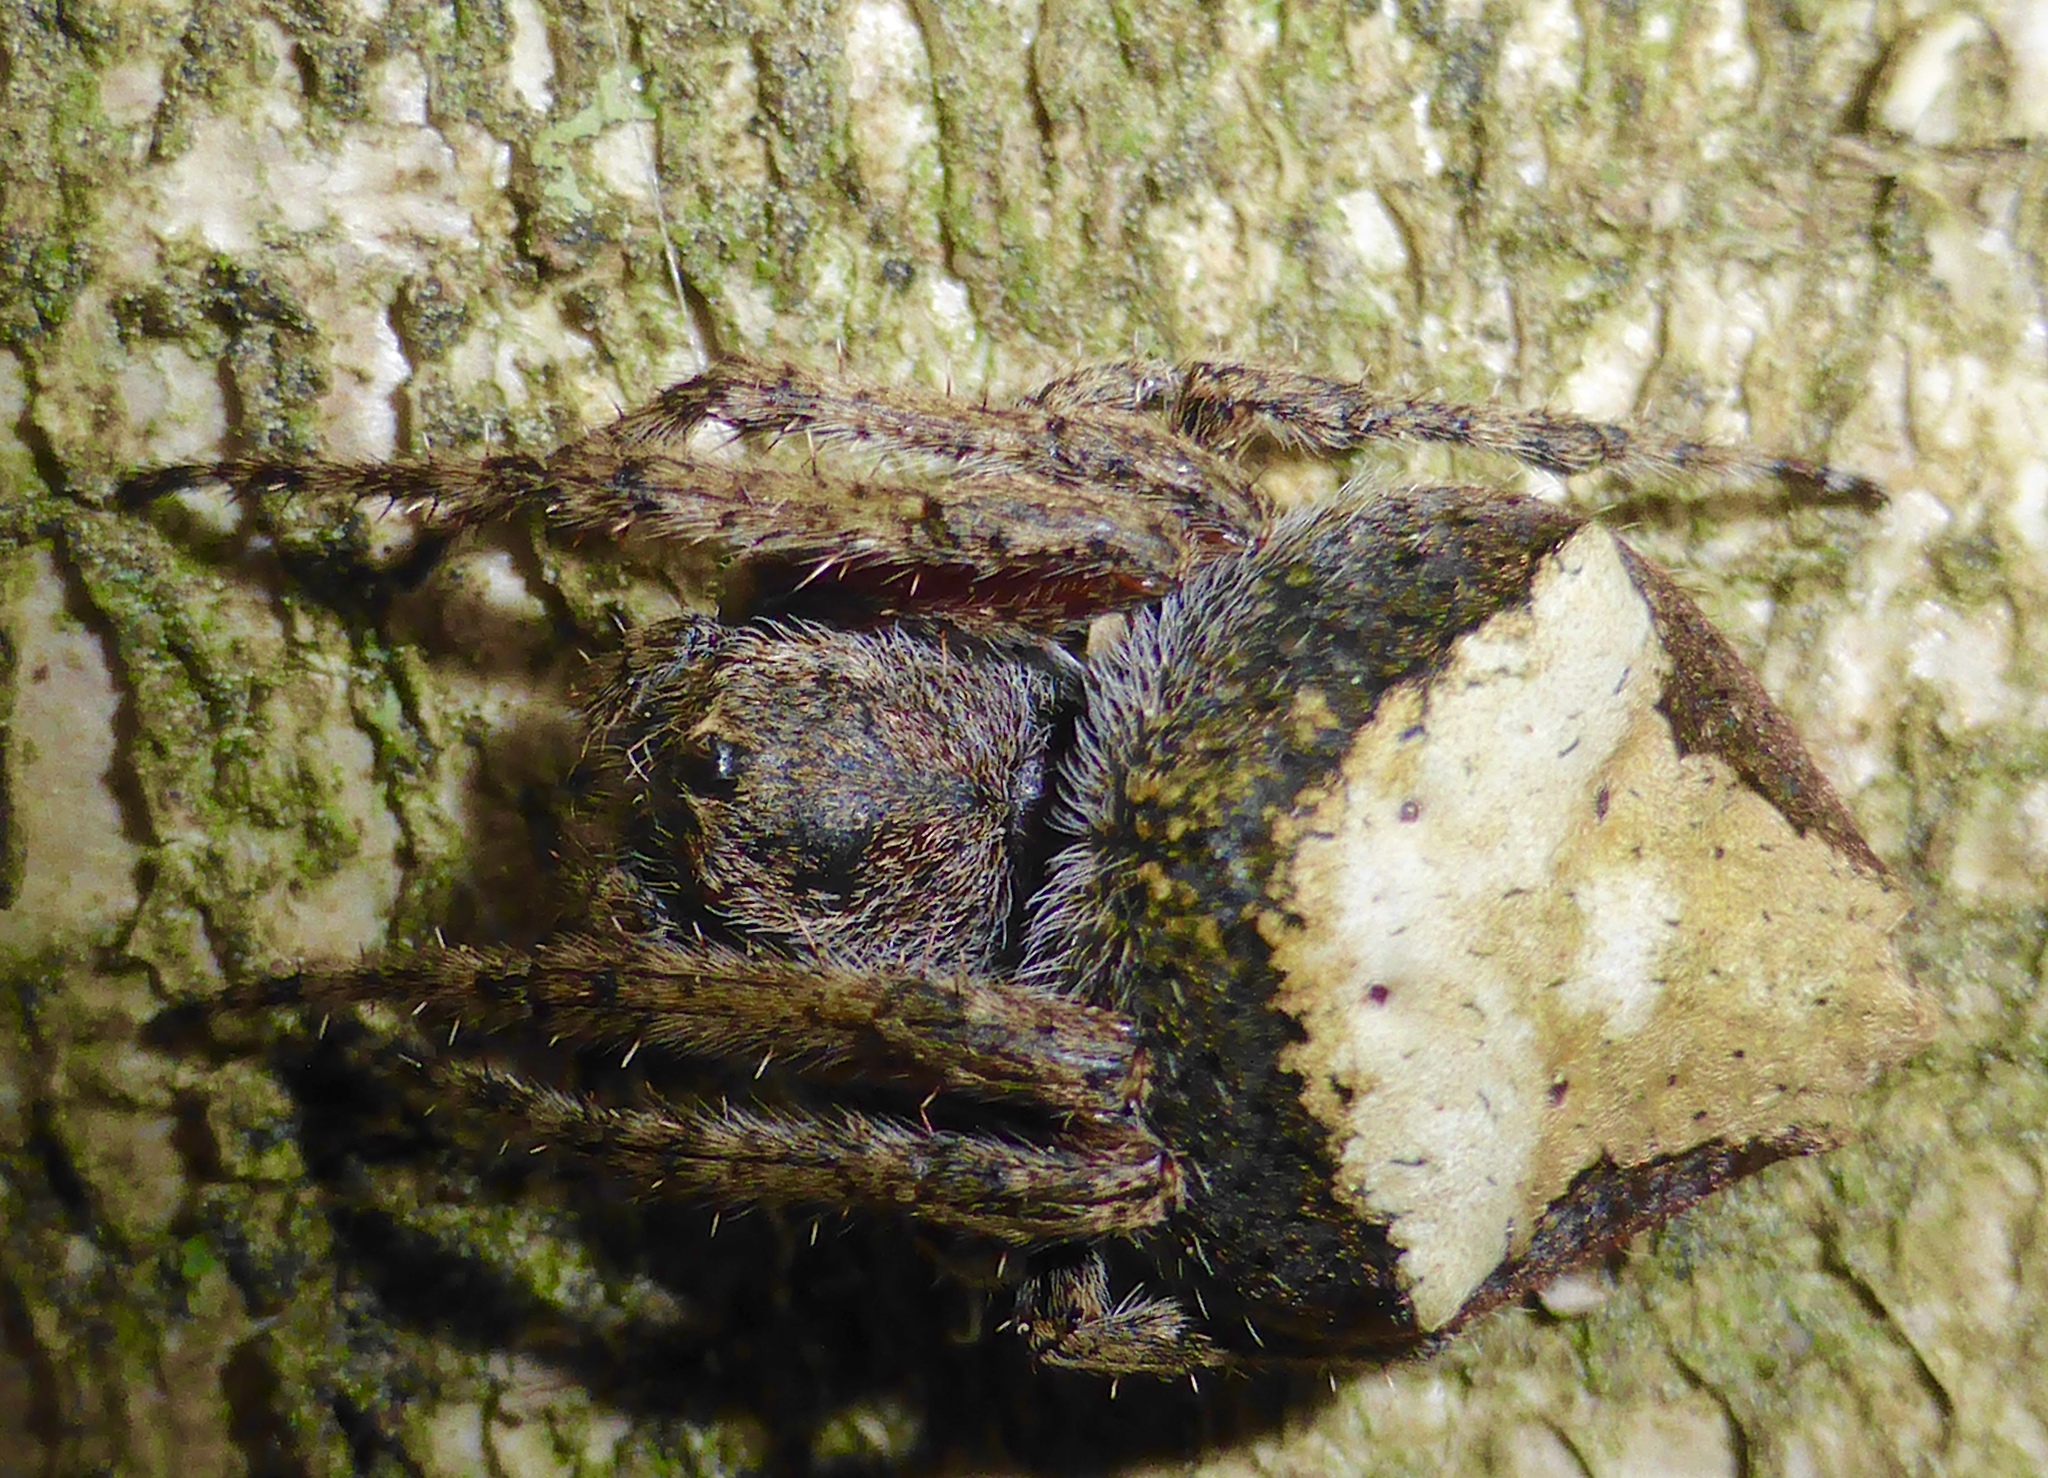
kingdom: Animalia
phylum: Arthropoda
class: Arachnida
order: Araneae
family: Araneidae
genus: Eriophora
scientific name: Eriophora pustulosa
